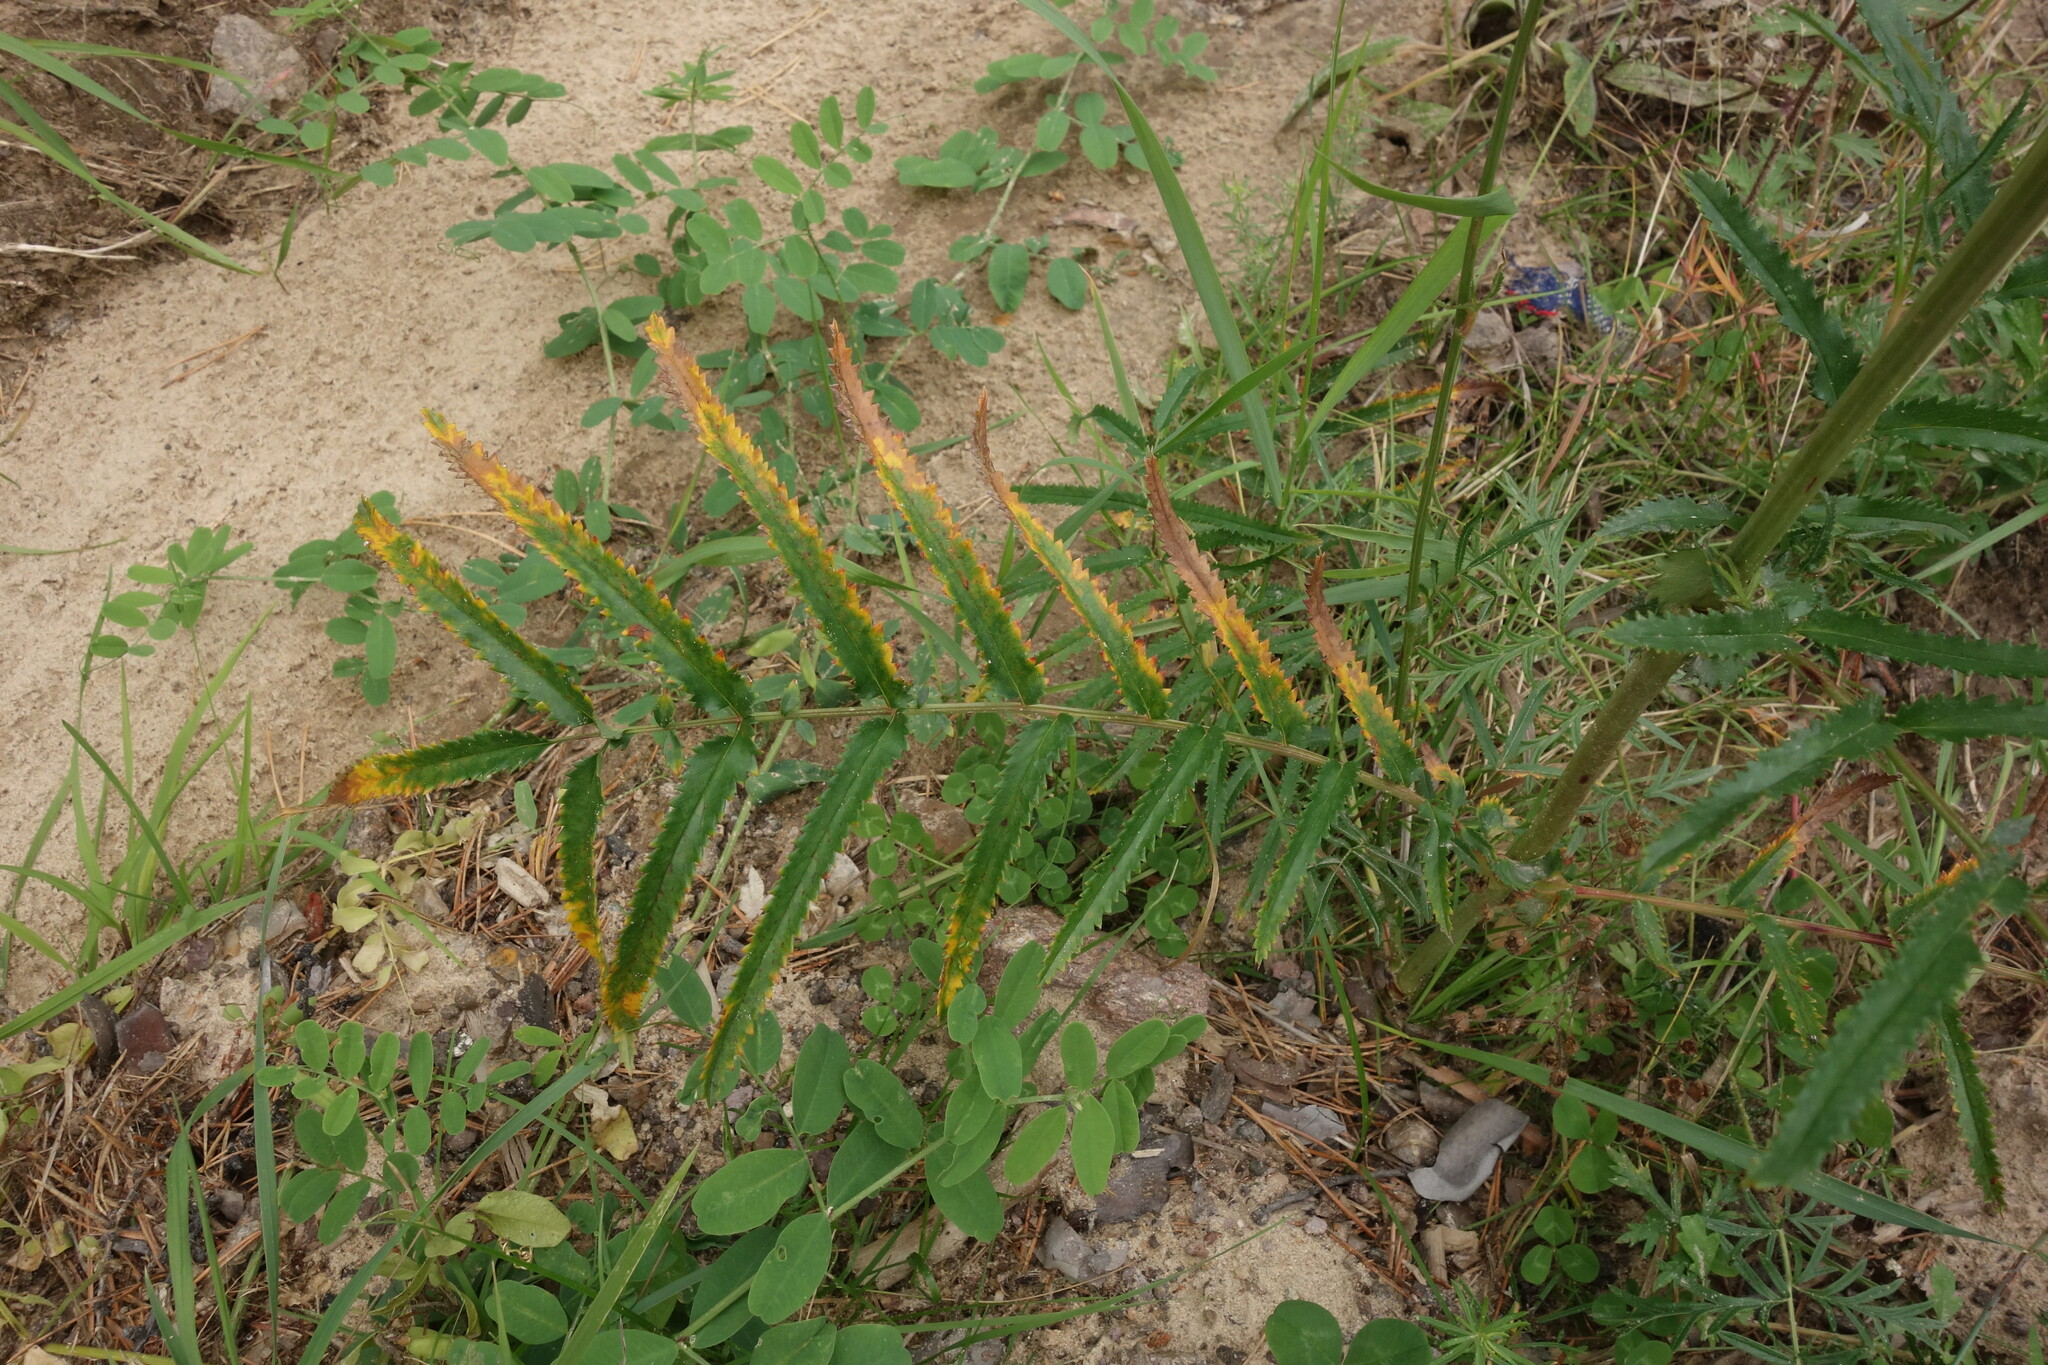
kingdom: Plantae
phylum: Tracheophyta
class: Magnoliopsida
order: Rosales
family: Rosaceae
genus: Poterium
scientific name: Poterium tenuifolium
